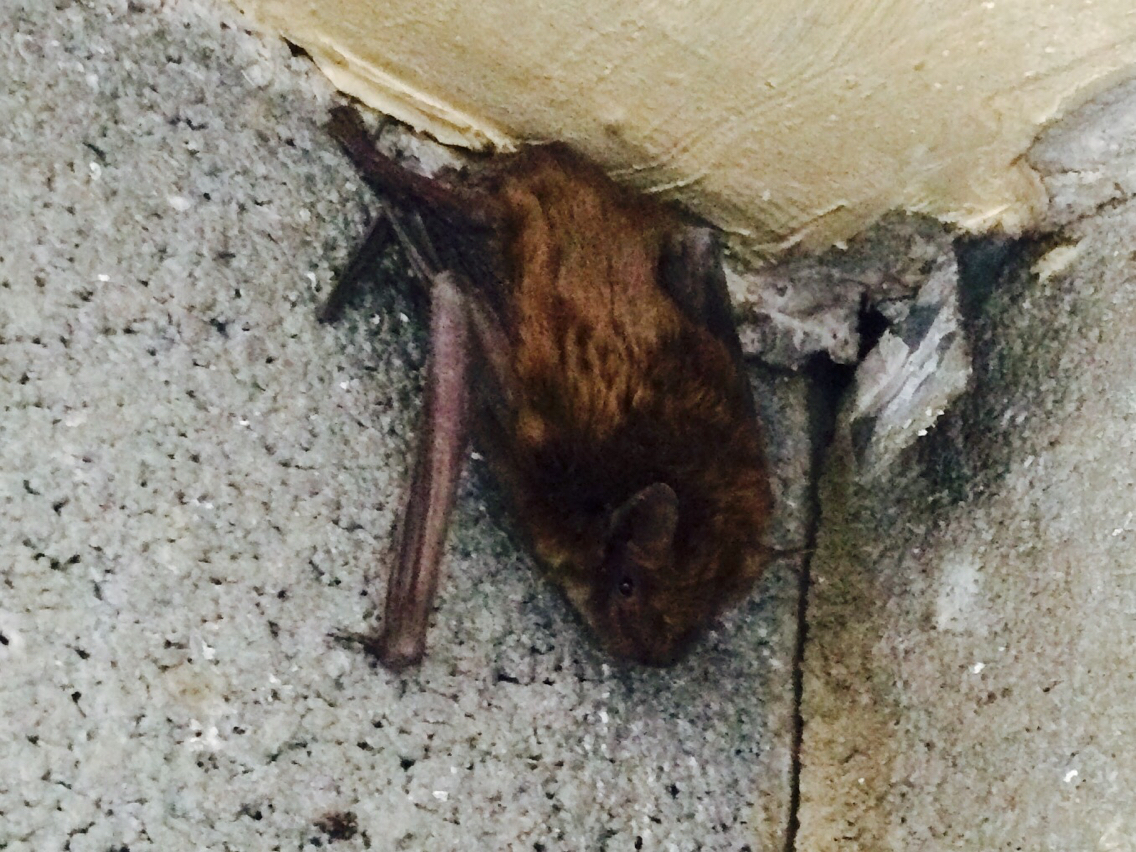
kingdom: Animalia
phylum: Chordata
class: Mammalia
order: Chiroptera
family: Vespertilionidae
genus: Eptesicus
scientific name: Eptesicus fuscus
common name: Big brown bat
